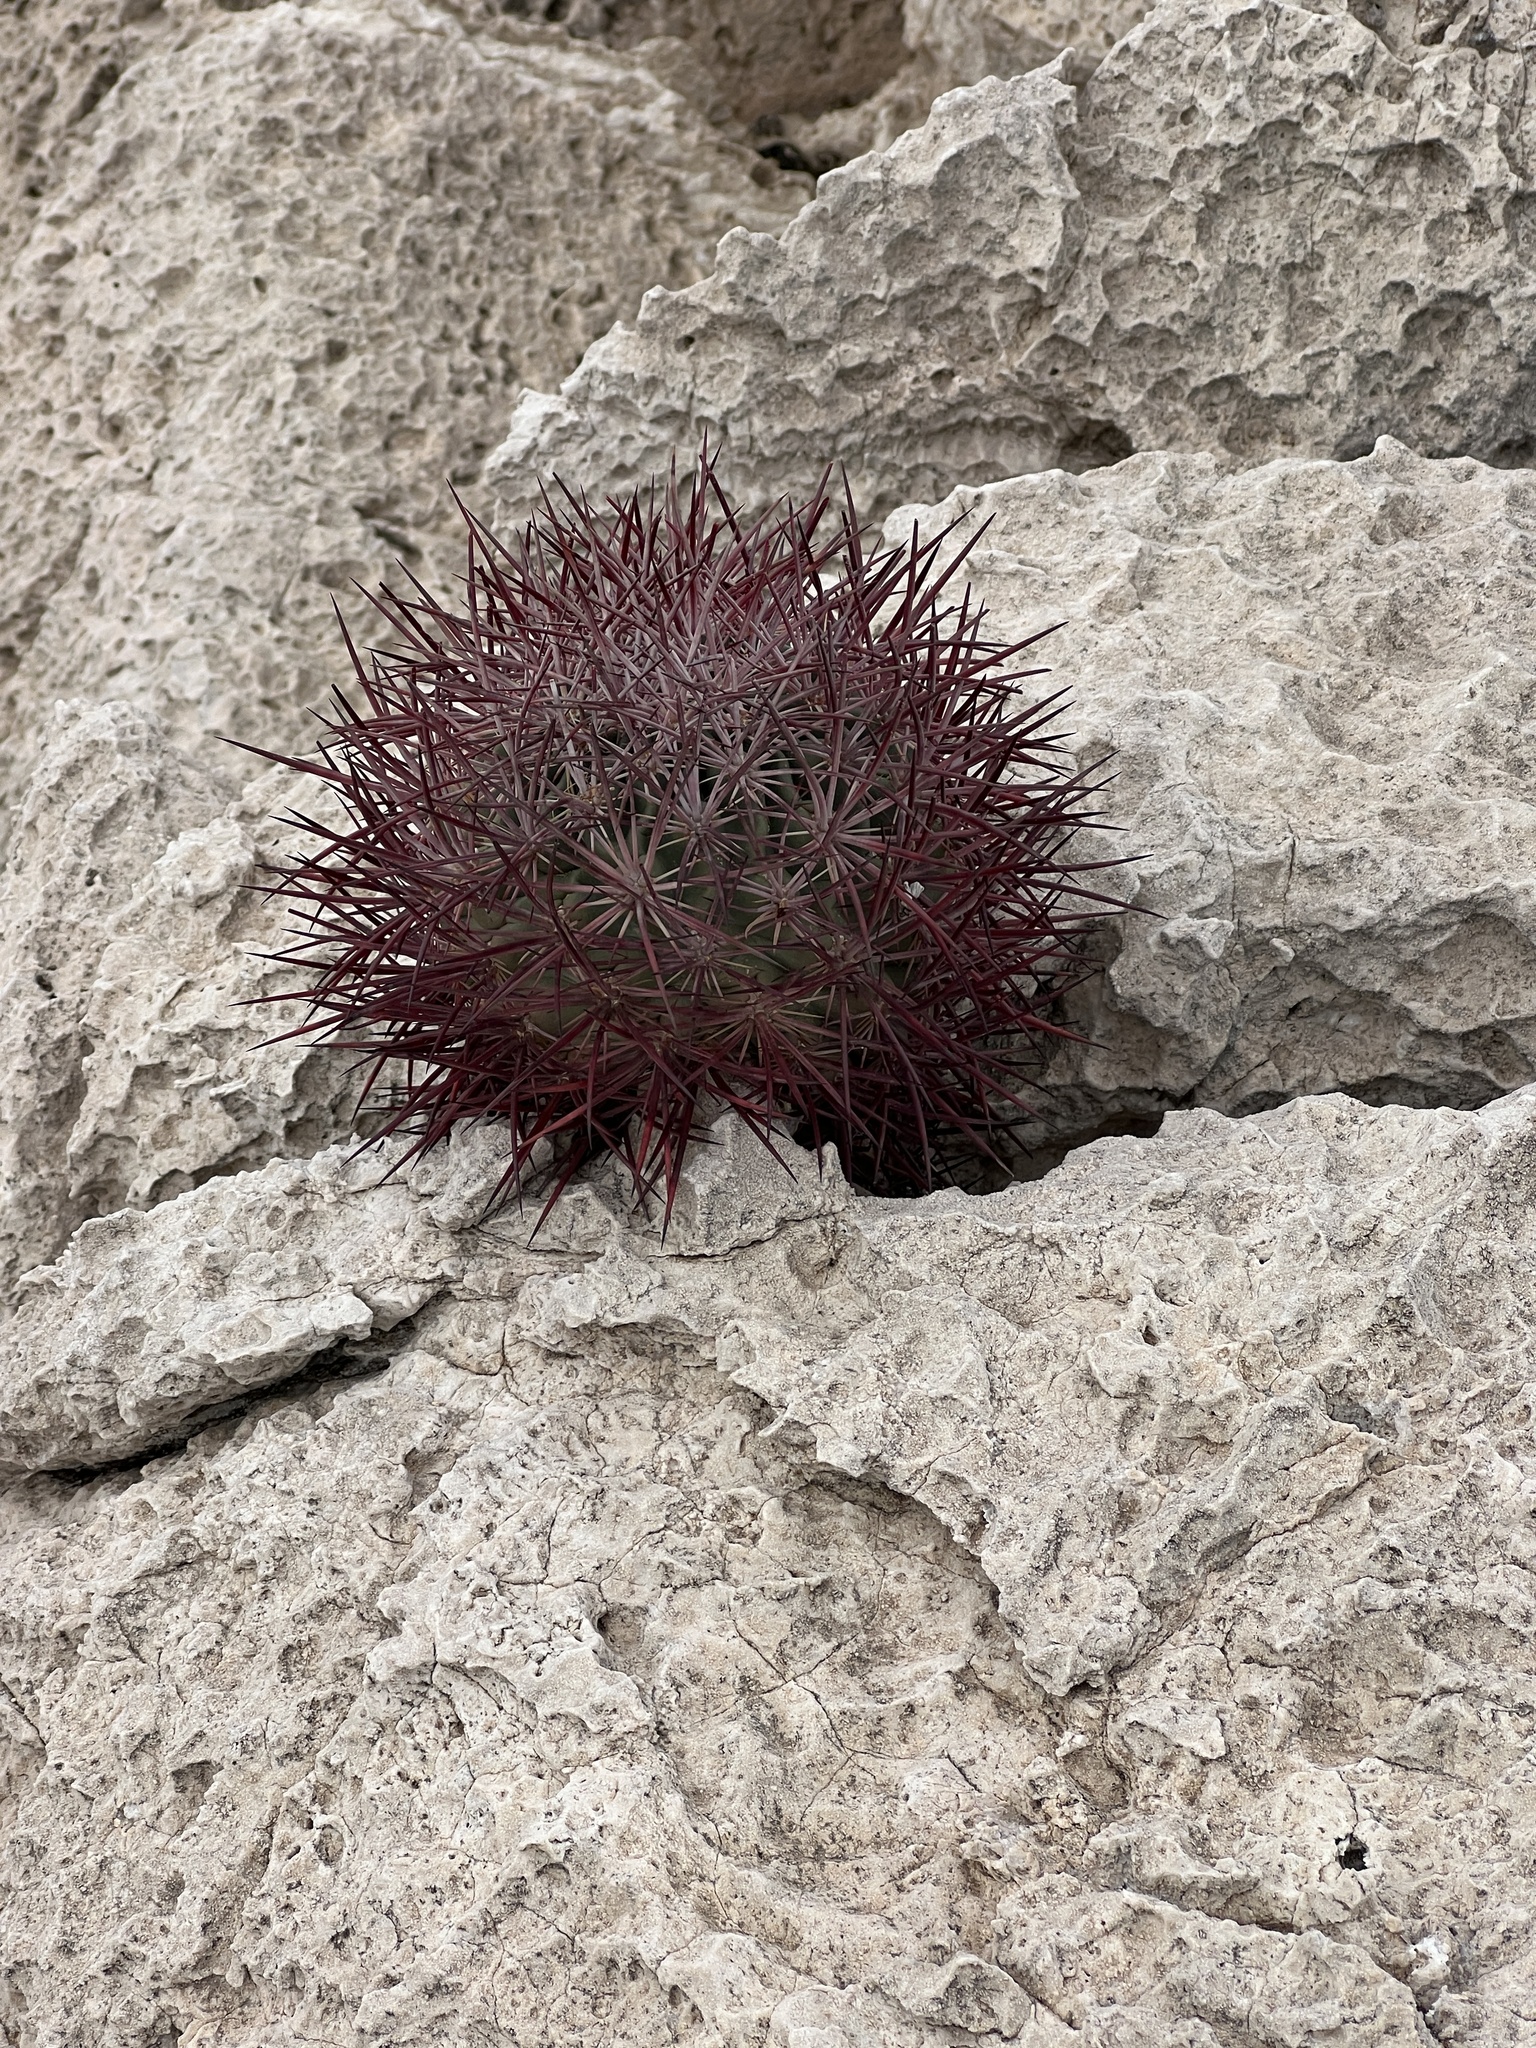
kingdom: Plantae
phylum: Tracheophyta
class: Magnoliopsida
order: Caryophyllales
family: Cactaceae
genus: Sclerocactus
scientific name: Sclerocactus johnsonii
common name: Eight-spine fishhook cactus
